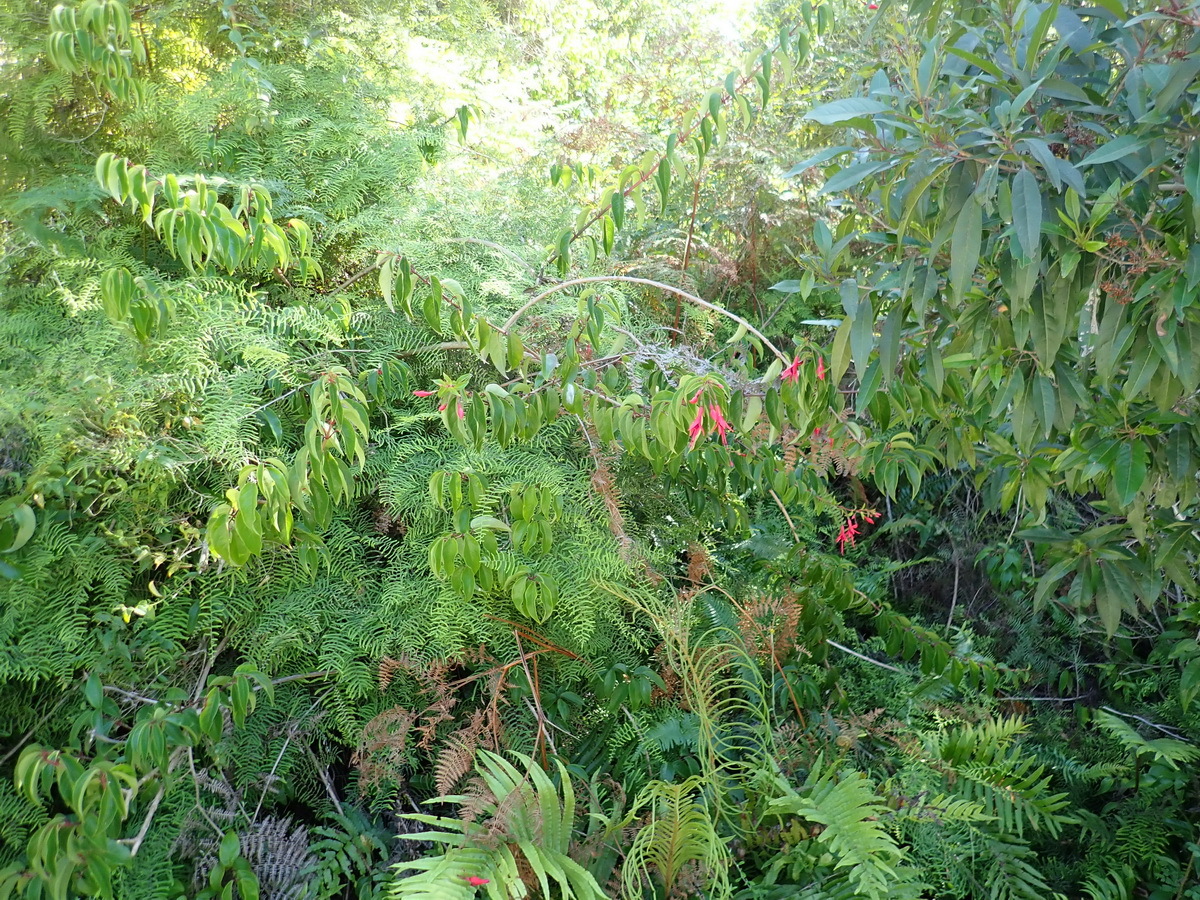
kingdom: Plantae
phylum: Tracheophyta
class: Magnoliopsida
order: Myrtales
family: Onagraceae
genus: Fuchsia
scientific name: Fuchsia regia
